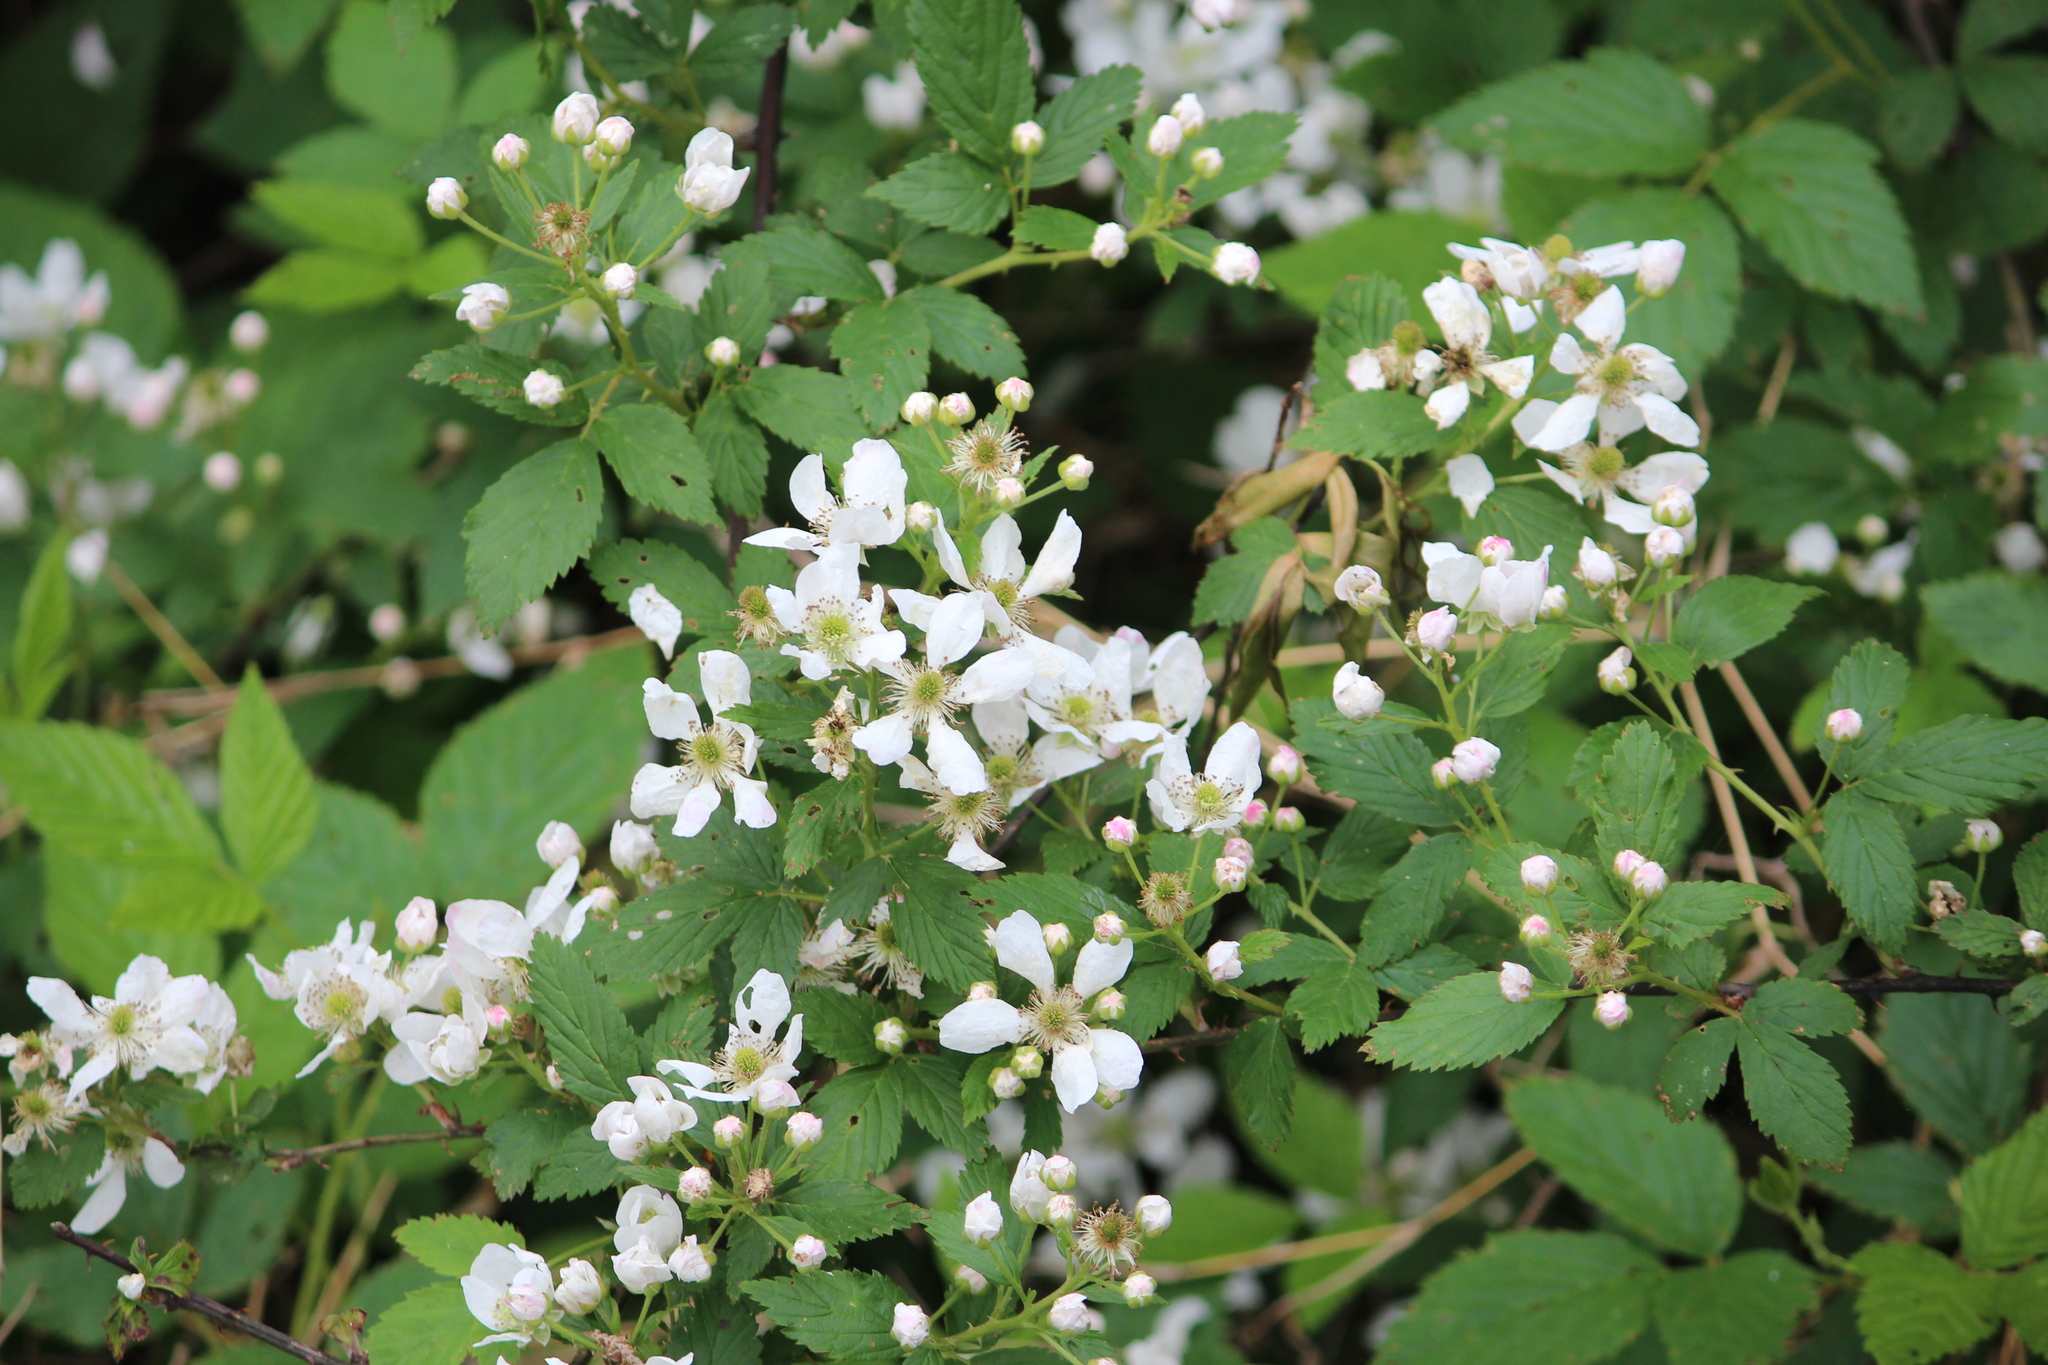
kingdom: Plantae
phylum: Tracheophyta
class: Magnoliopsida
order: Rosales
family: Rosaceae
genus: Rubus
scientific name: Rubus pensilvanicus
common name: Pennsylvania blackberry
